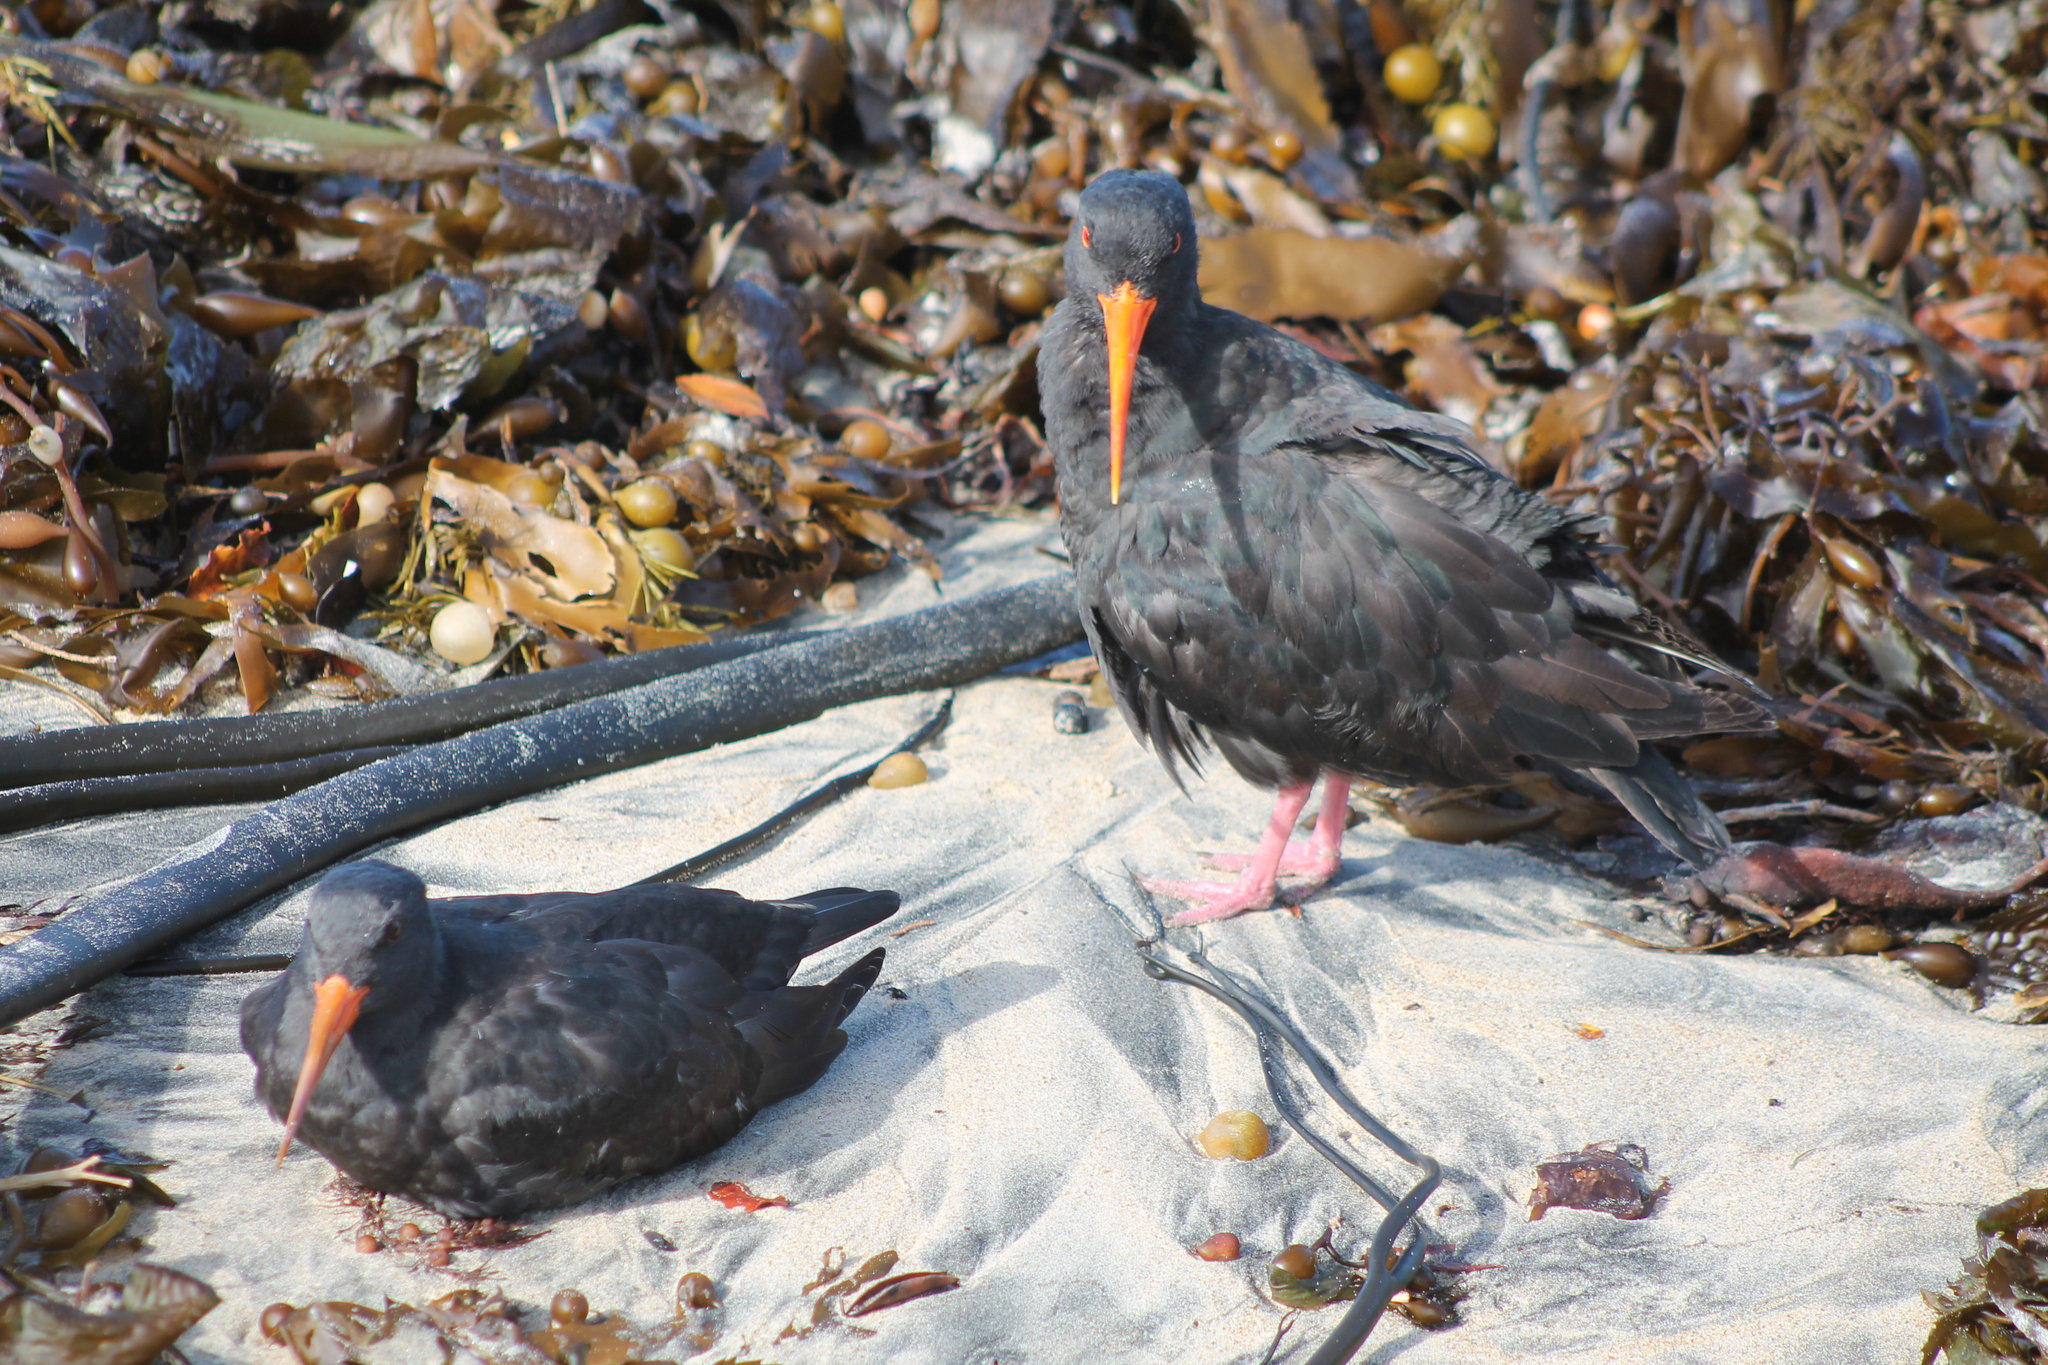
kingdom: Chromista
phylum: Ochrophyta
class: Phaeophyceae
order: Laminariales
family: Laminariaceae
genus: Macrocystis
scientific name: Macrocystis pyrifera
